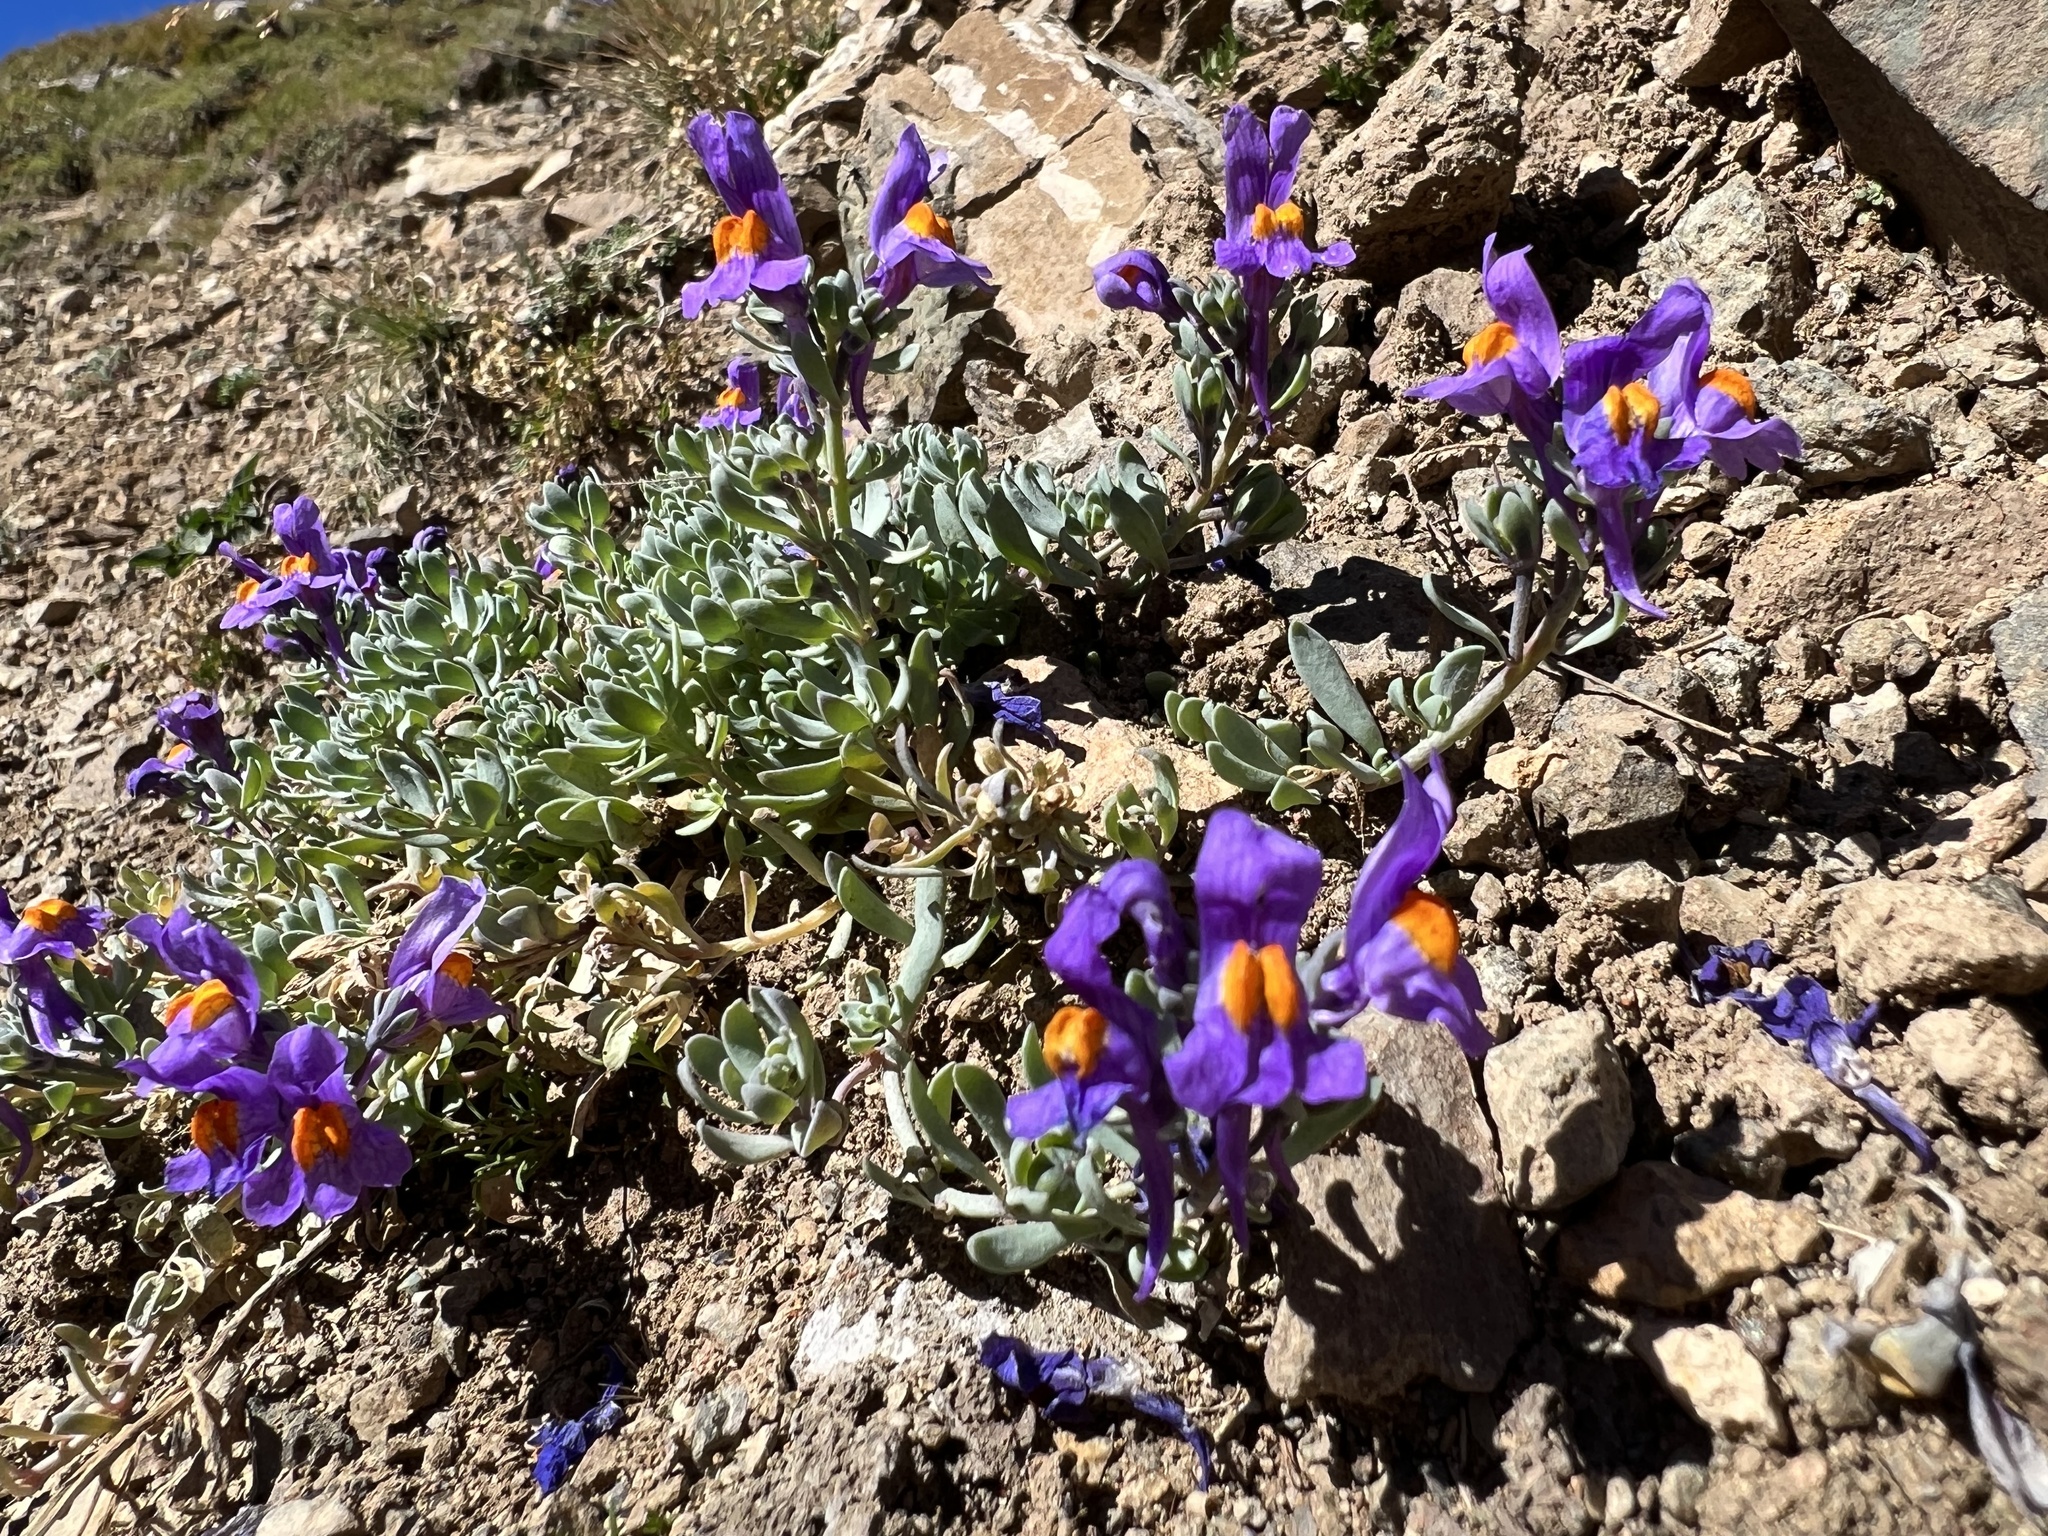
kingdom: Plantae
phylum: Tracheophyta
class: Magnoliopsida
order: Lamiales
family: Plantaginaceae
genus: Linaria
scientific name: Linaria alpina
